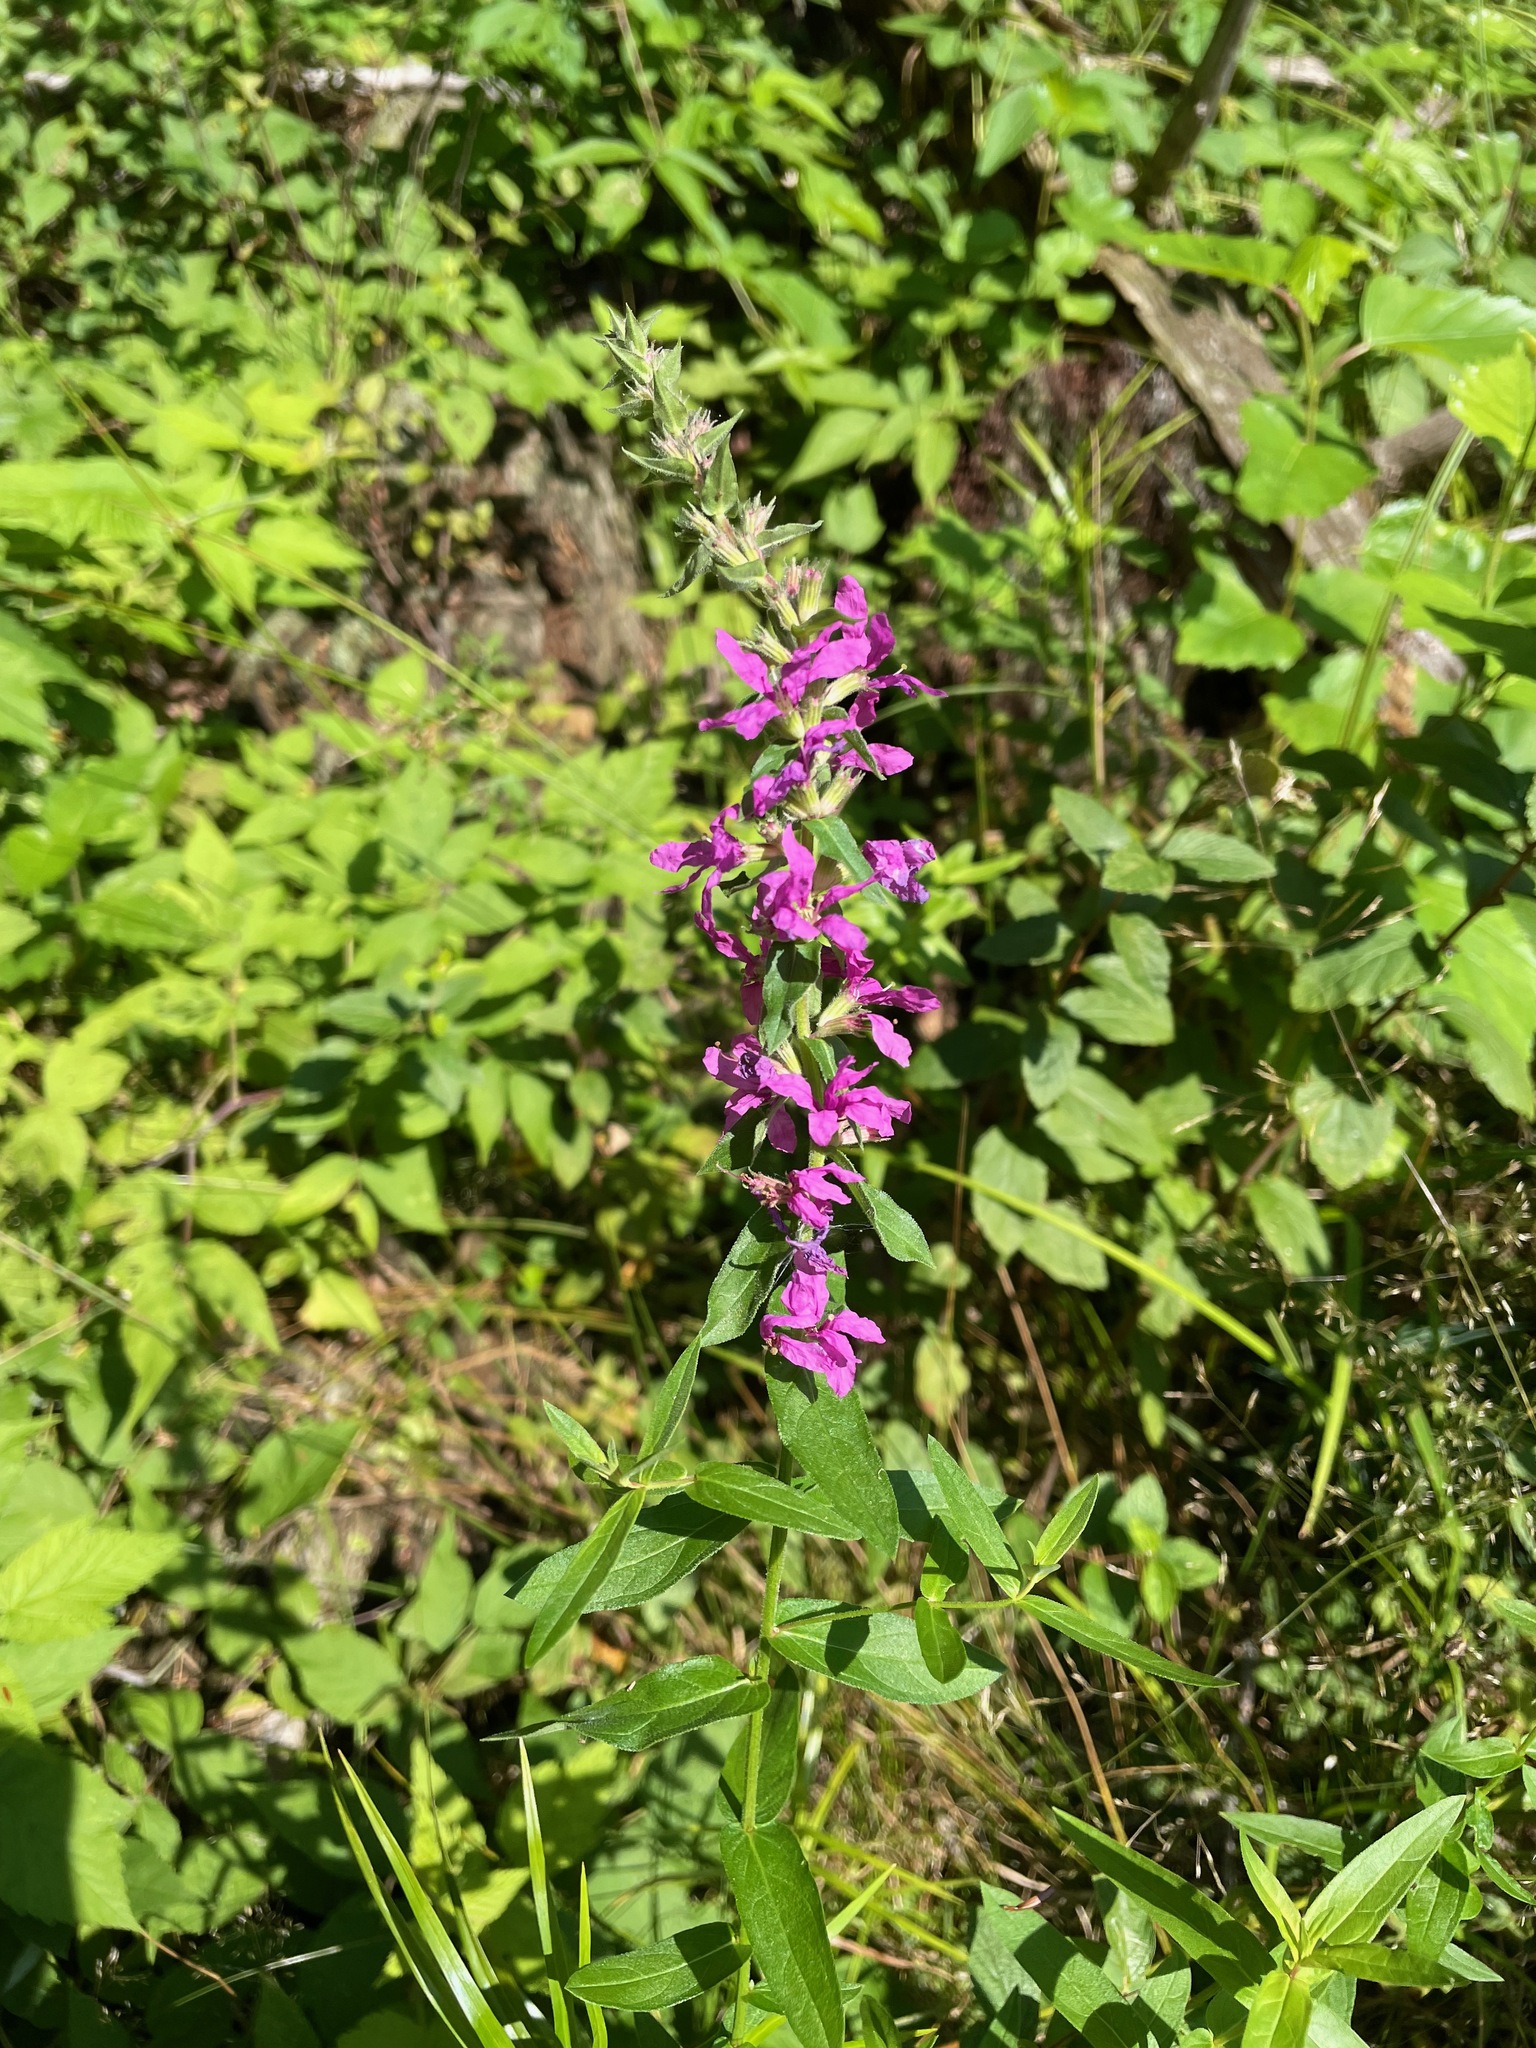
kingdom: Plantae
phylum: Tracheophyta
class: Magnoliopsida
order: Myrtales
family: Lythraceae
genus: Lythrum
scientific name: Lythrum salicaria
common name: Purple loosestrife
